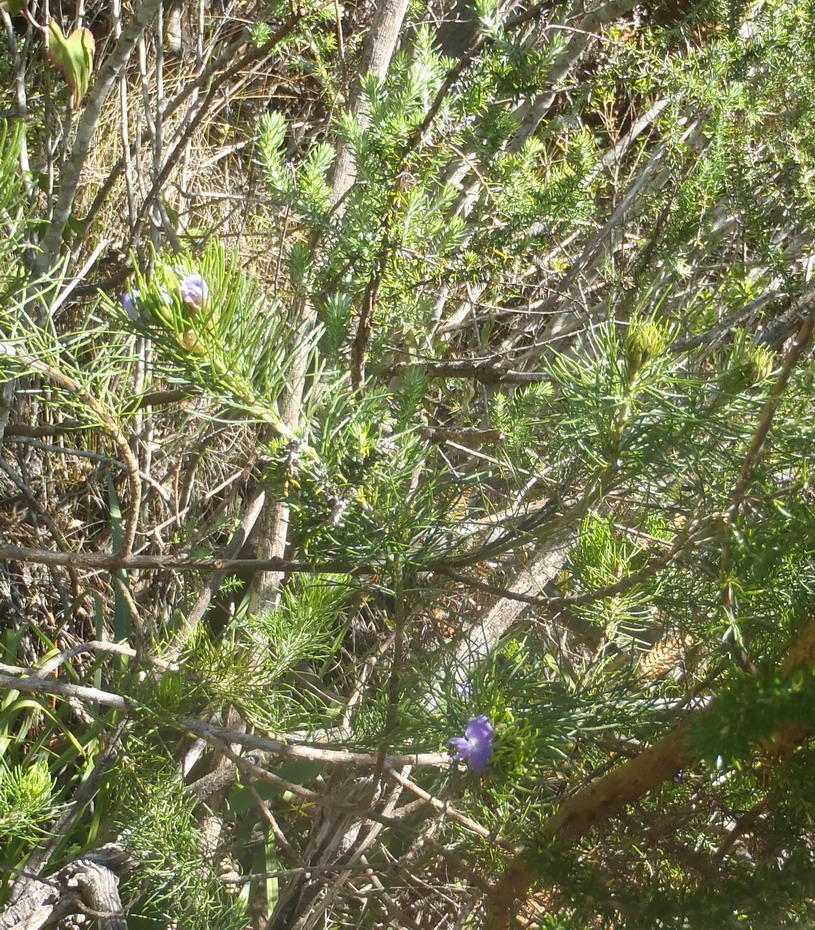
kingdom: Plantae
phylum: Tracheophyta
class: Magnoliopsida
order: Fabales
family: Fabaceae
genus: Psoralea
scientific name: Psoralea speciosa
